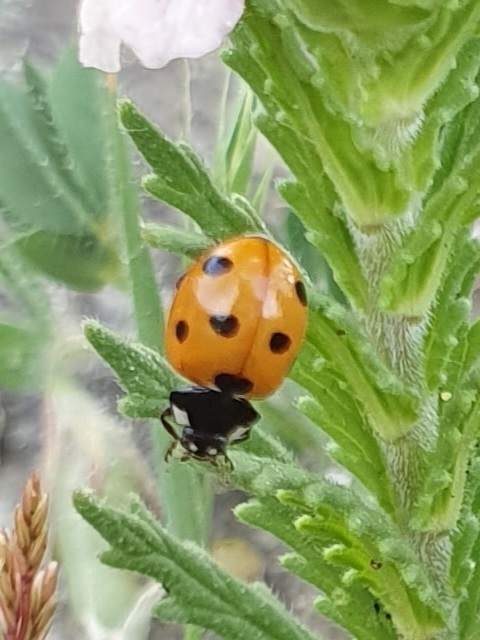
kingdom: Animalia
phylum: Arthropoda
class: Insecta
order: Coleoptera
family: Coccinellidae
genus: Coccinella
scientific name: Coccinella algerica
